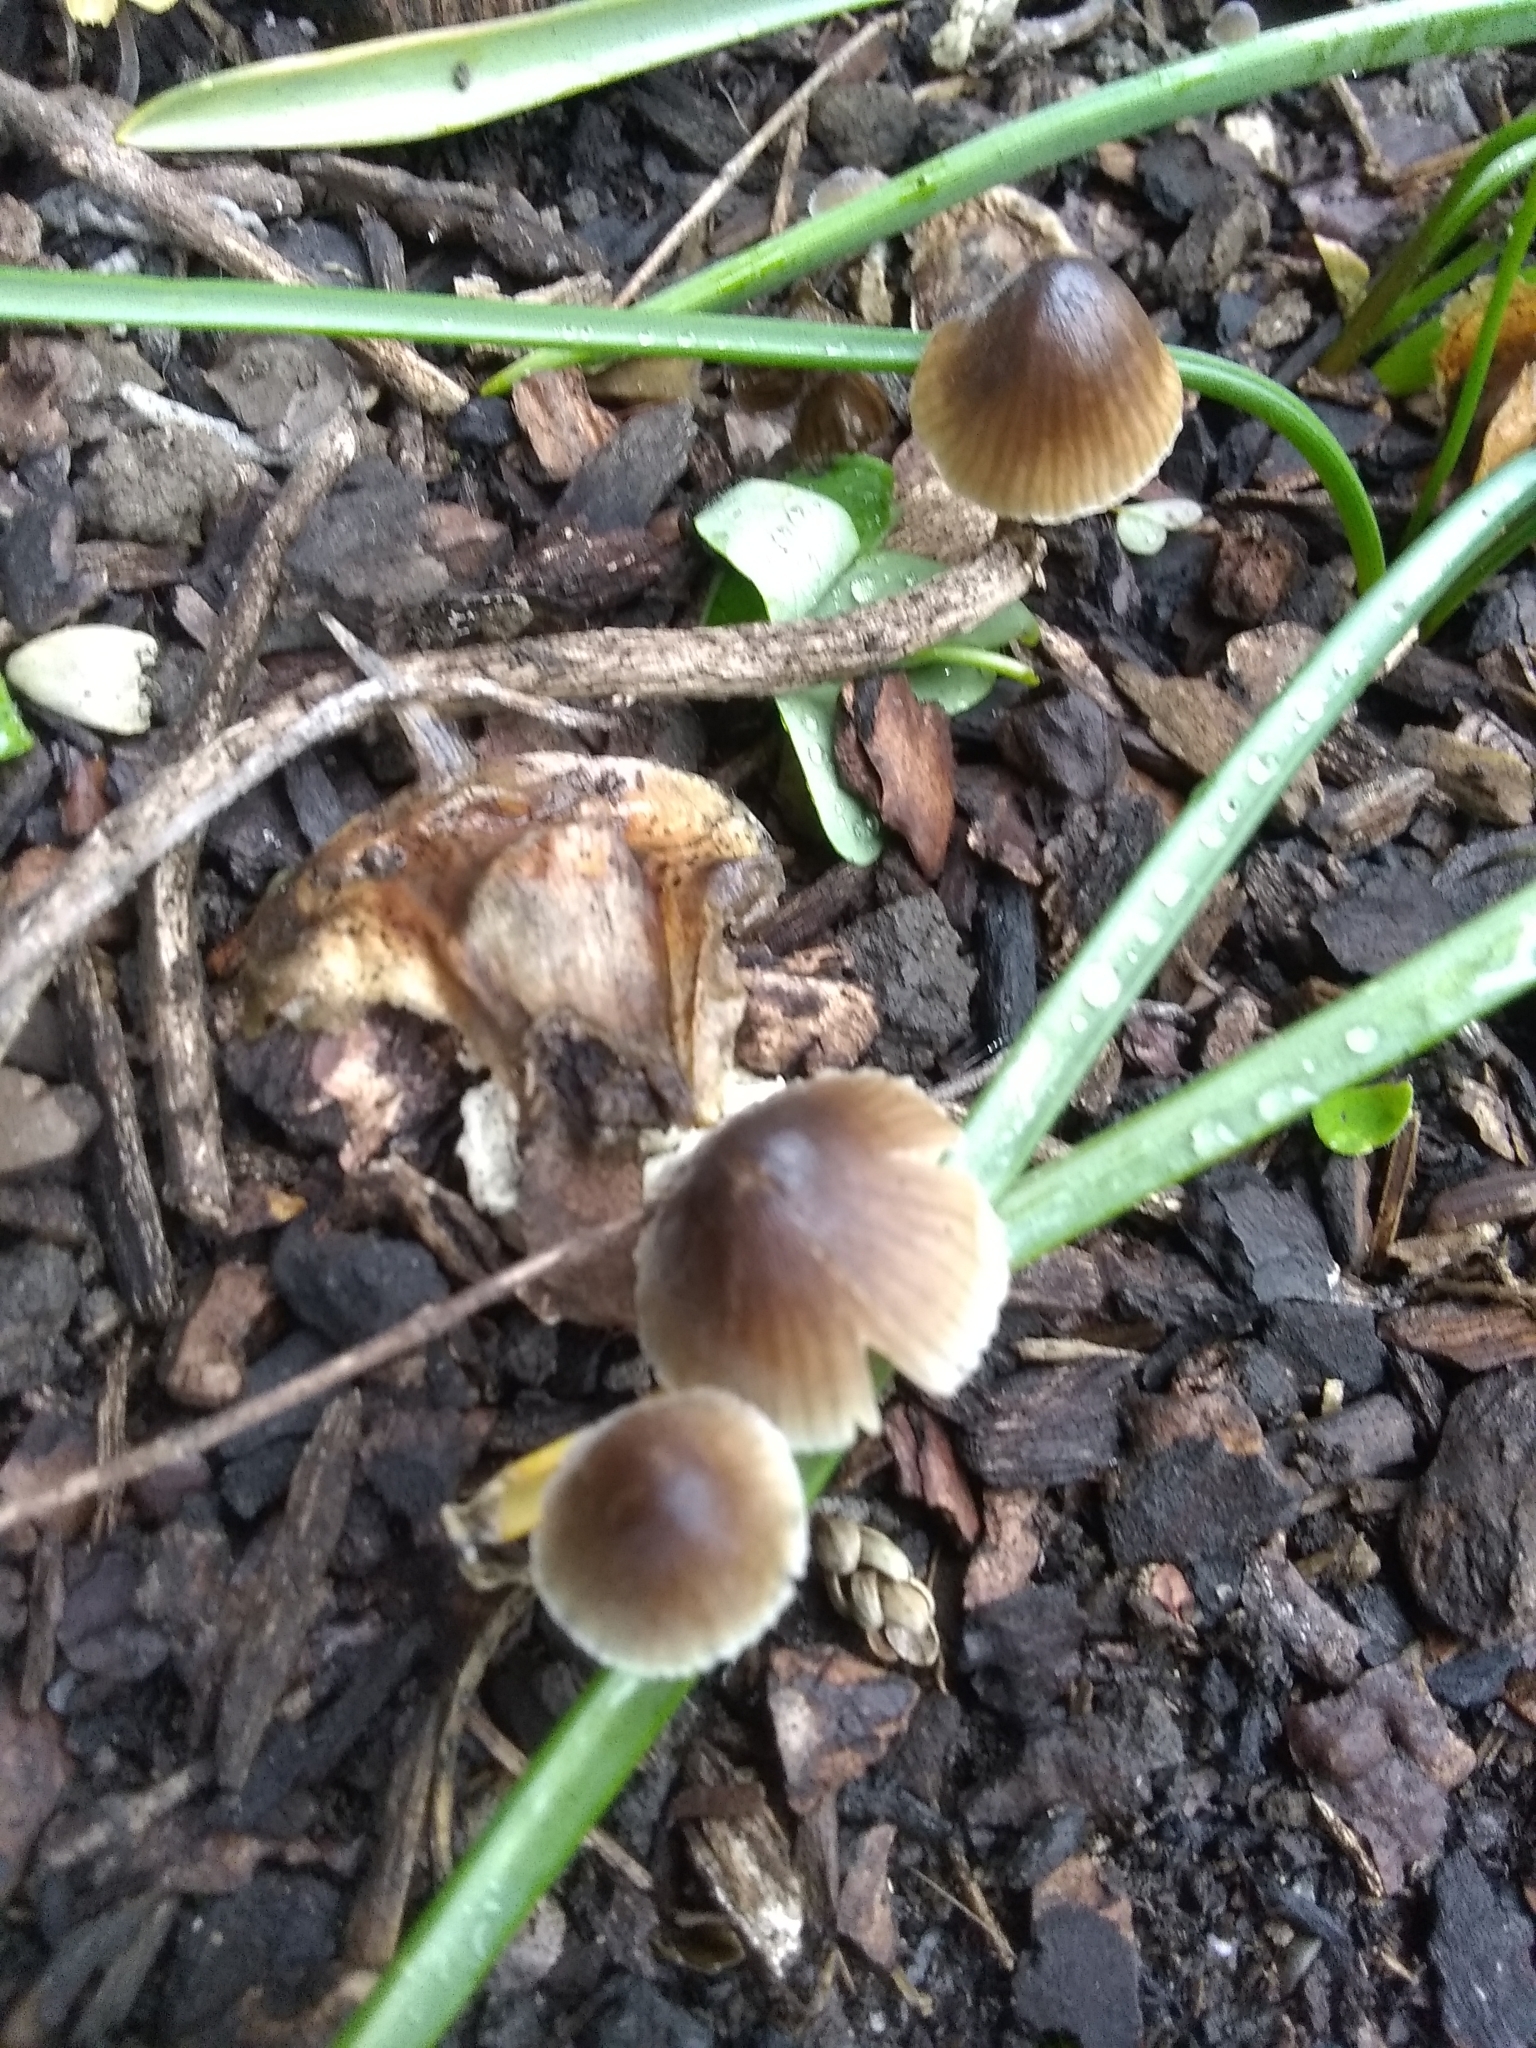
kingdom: Fungi
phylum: Basidiomycota
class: Agaricomycetes
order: Agaricales
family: Mycenaceae
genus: Mycena
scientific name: Mycena leptocephala
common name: Nitrous bonnet
